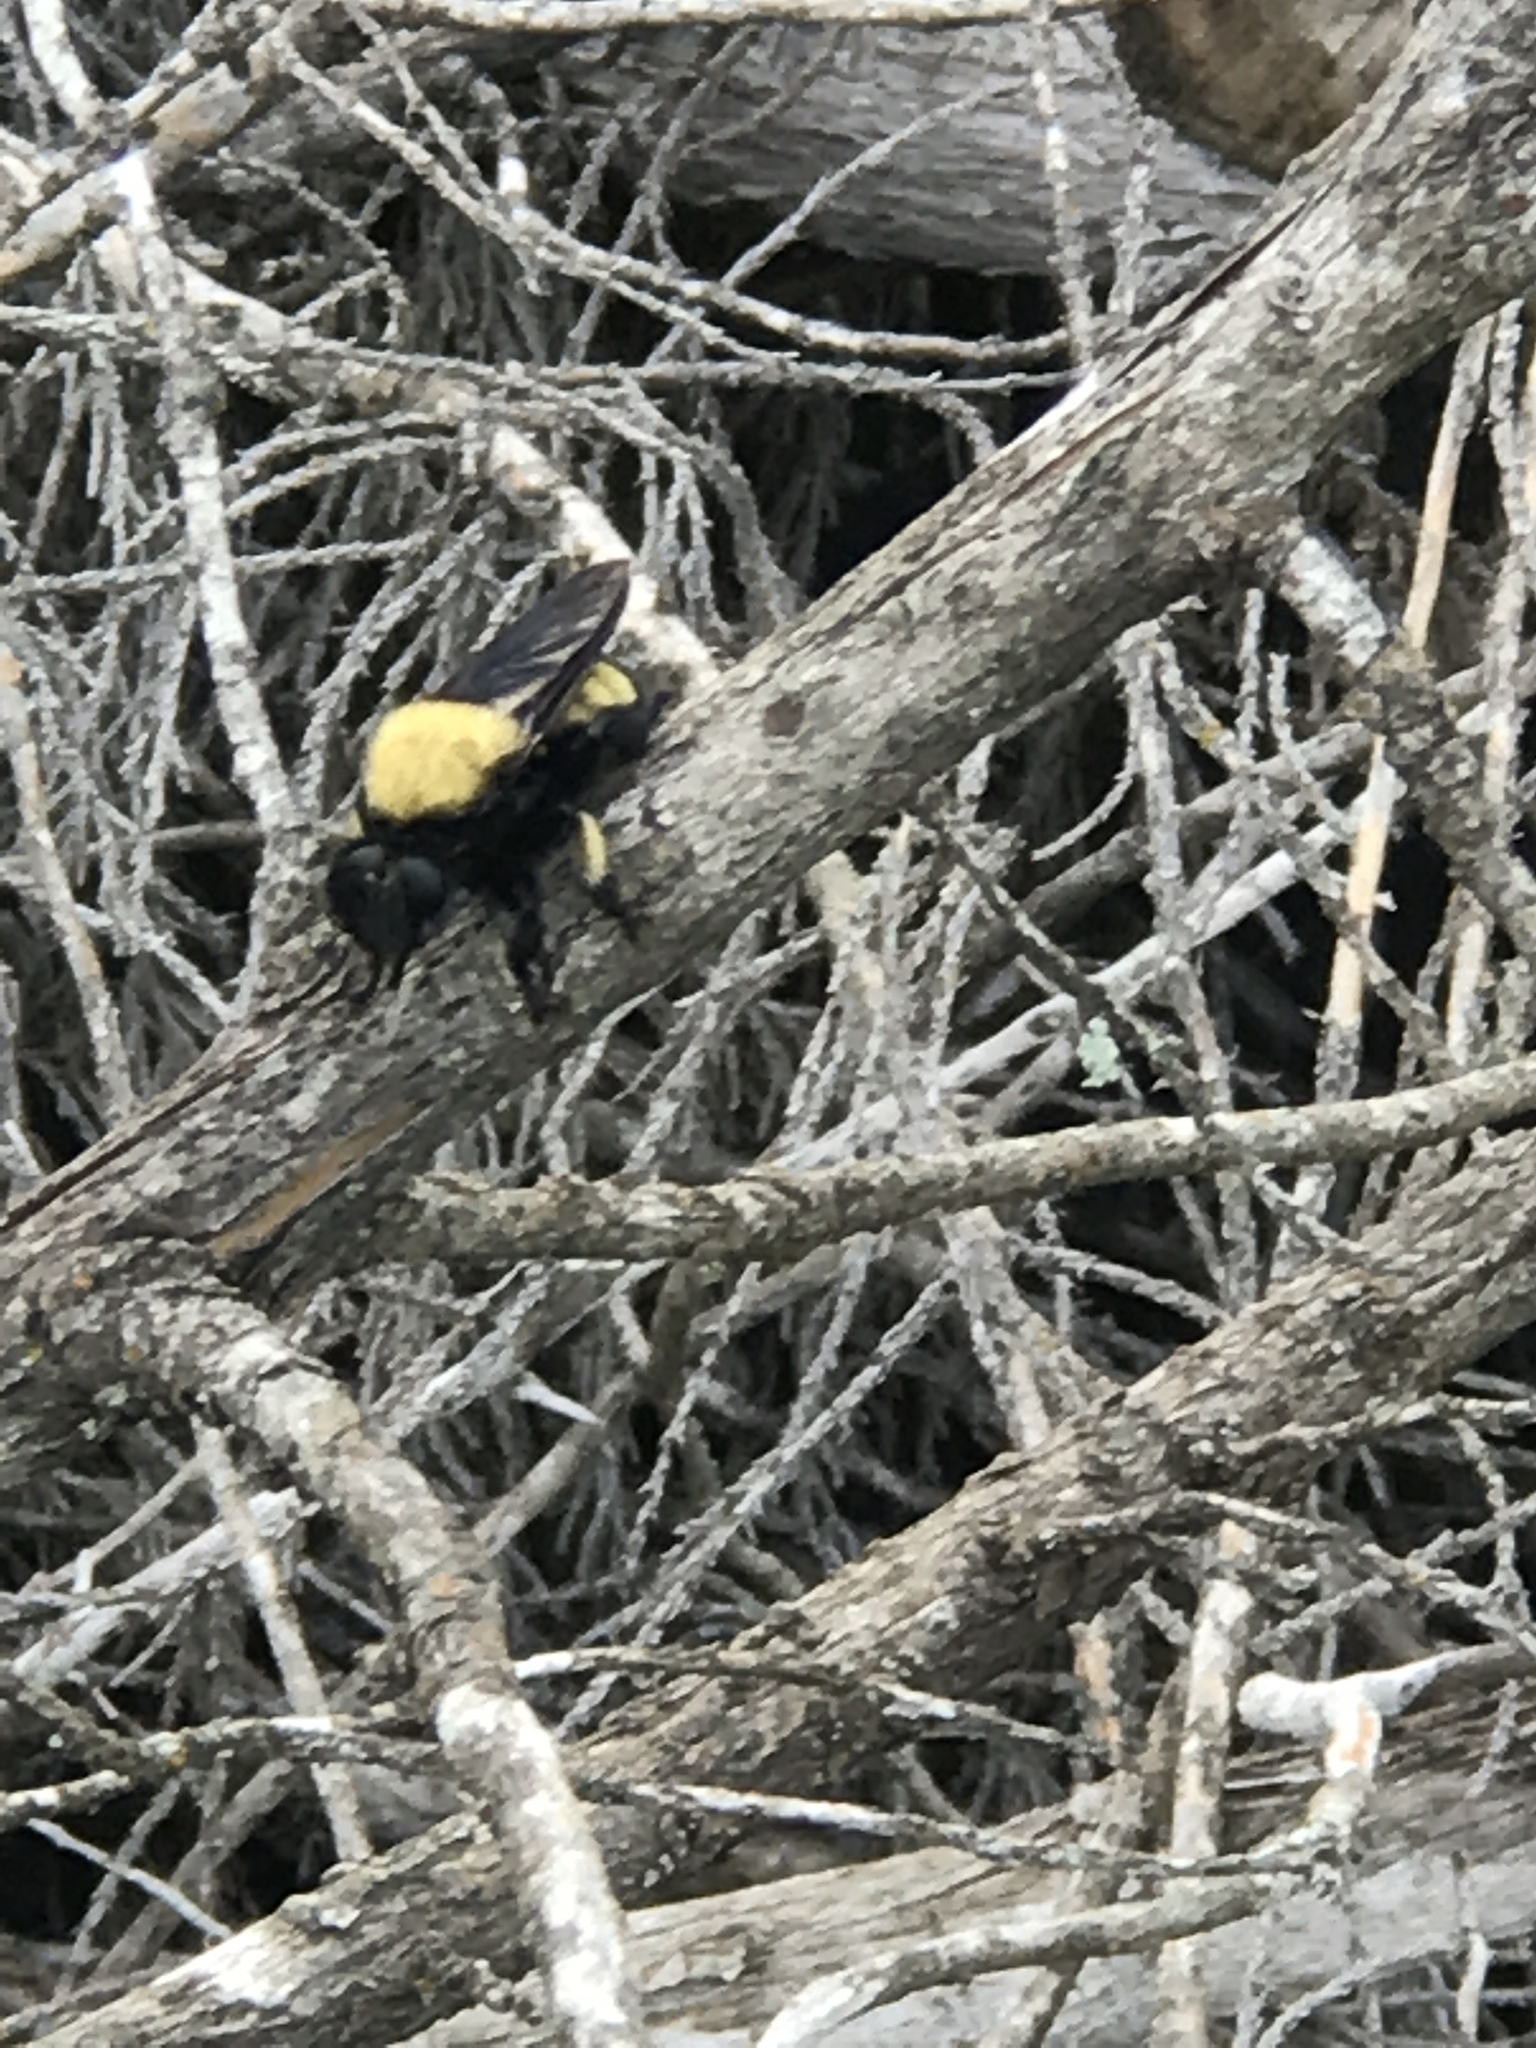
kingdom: Animalia
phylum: Arthropoda
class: Insecta
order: Diptera
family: Asilidae
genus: Laphria
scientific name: Laphria macquarti
